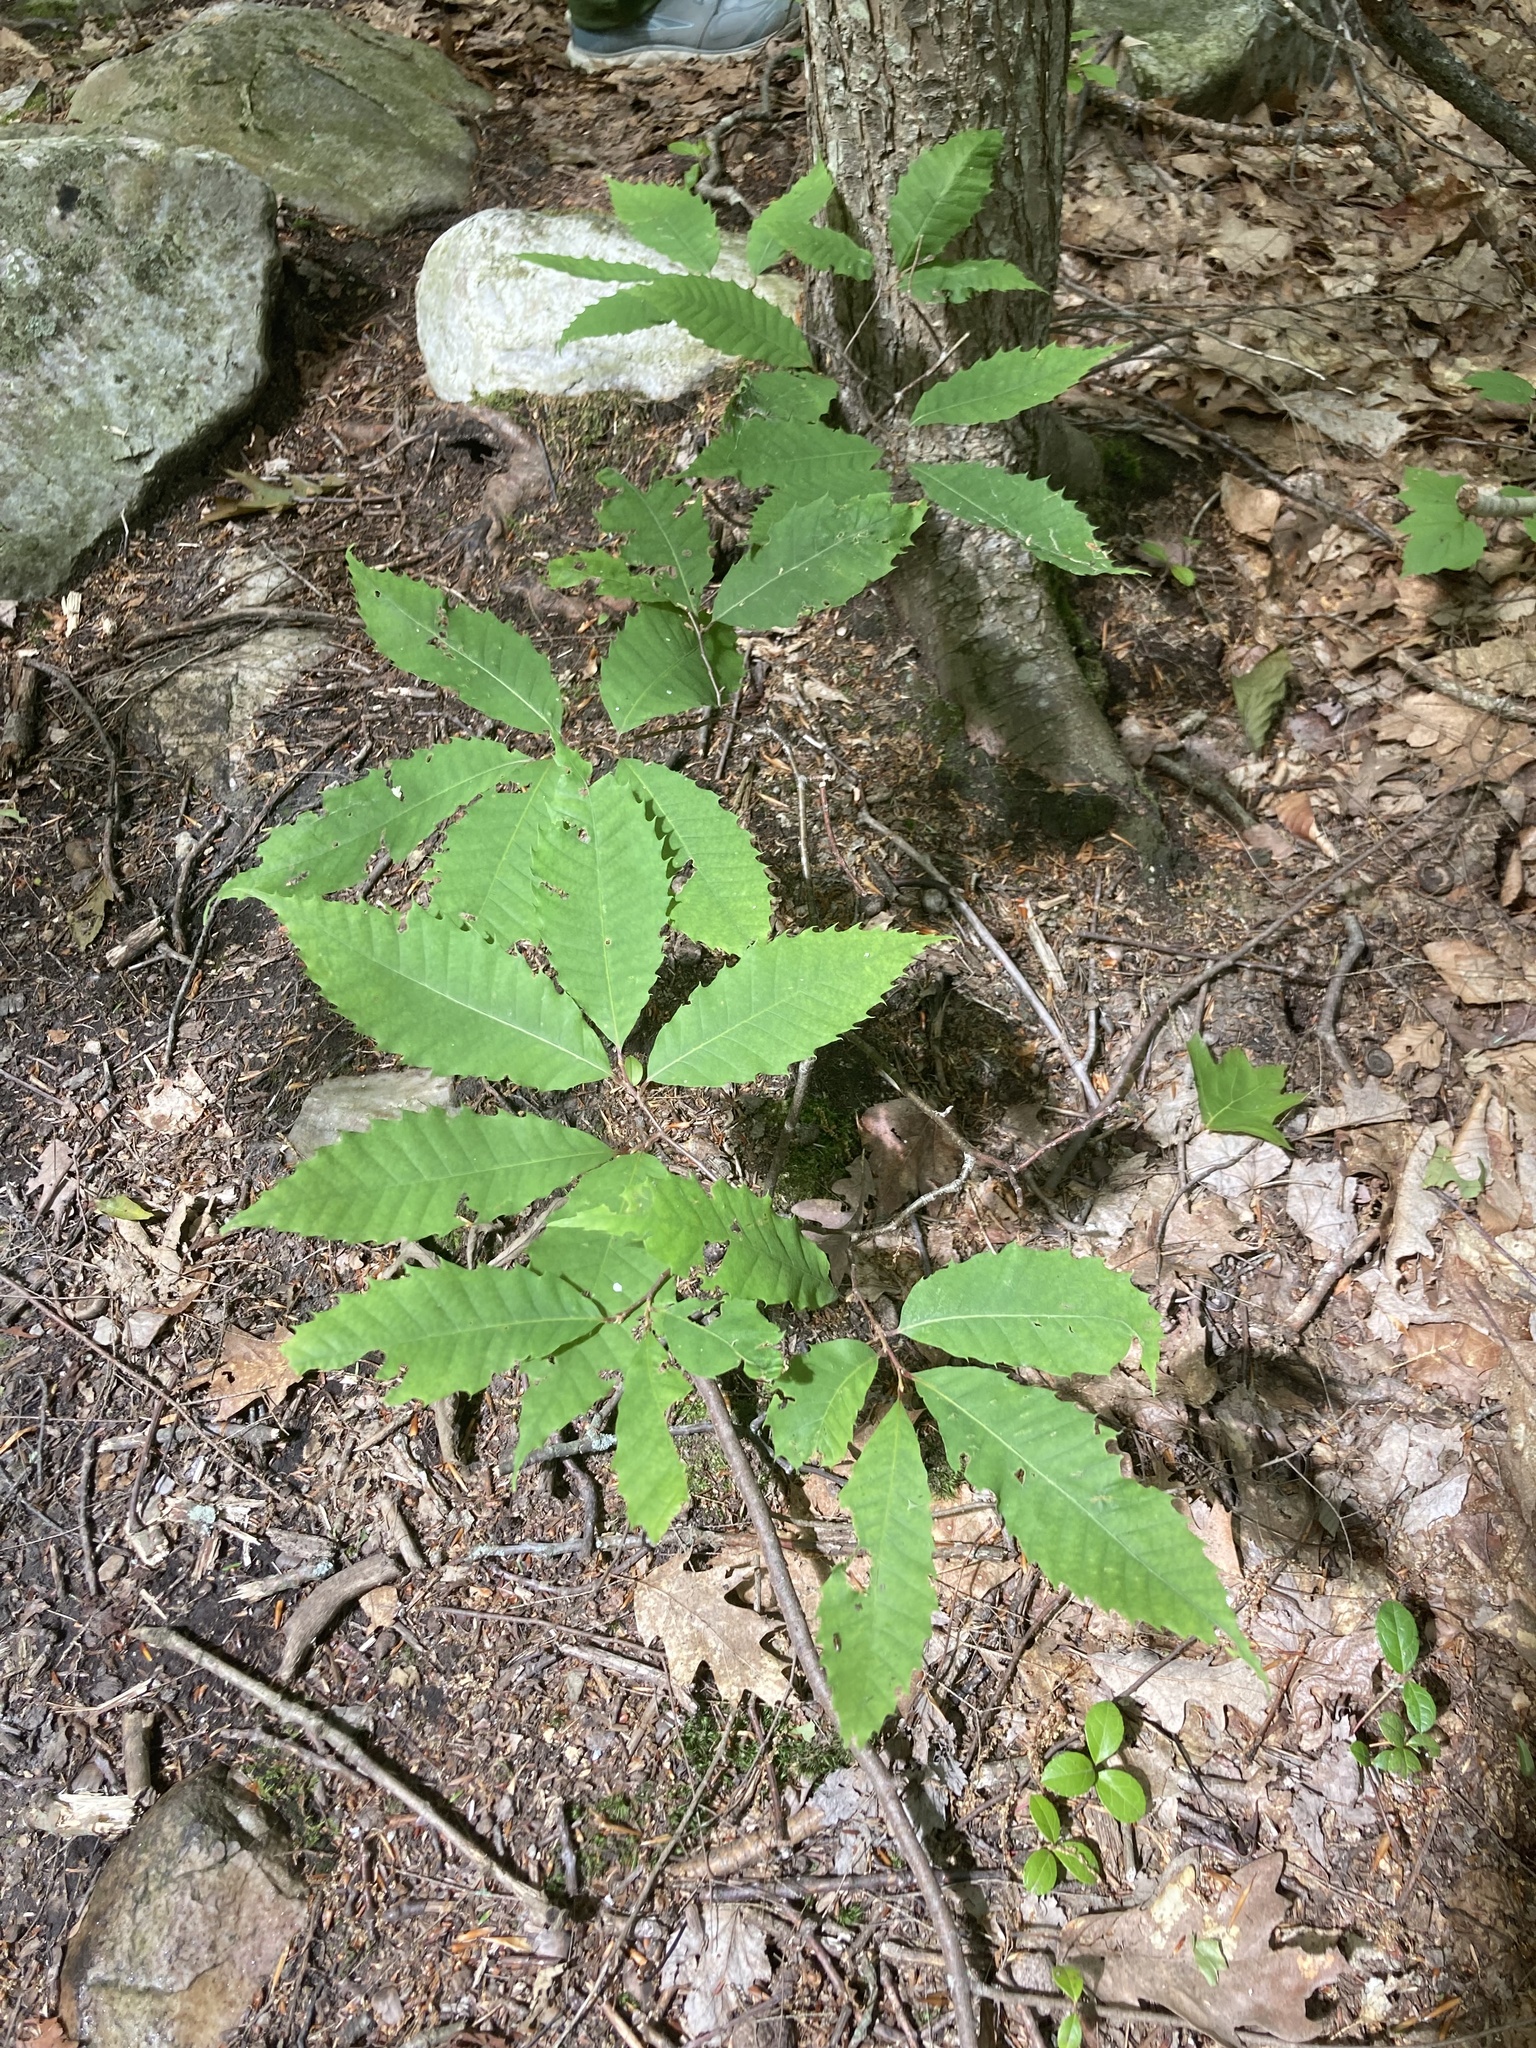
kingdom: Plantae
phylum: Tracheophyta
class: Magnoliopsida
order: Fagales
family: Fagaceae
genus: Castanea
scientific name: Castanea dentata
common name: American chestnut
